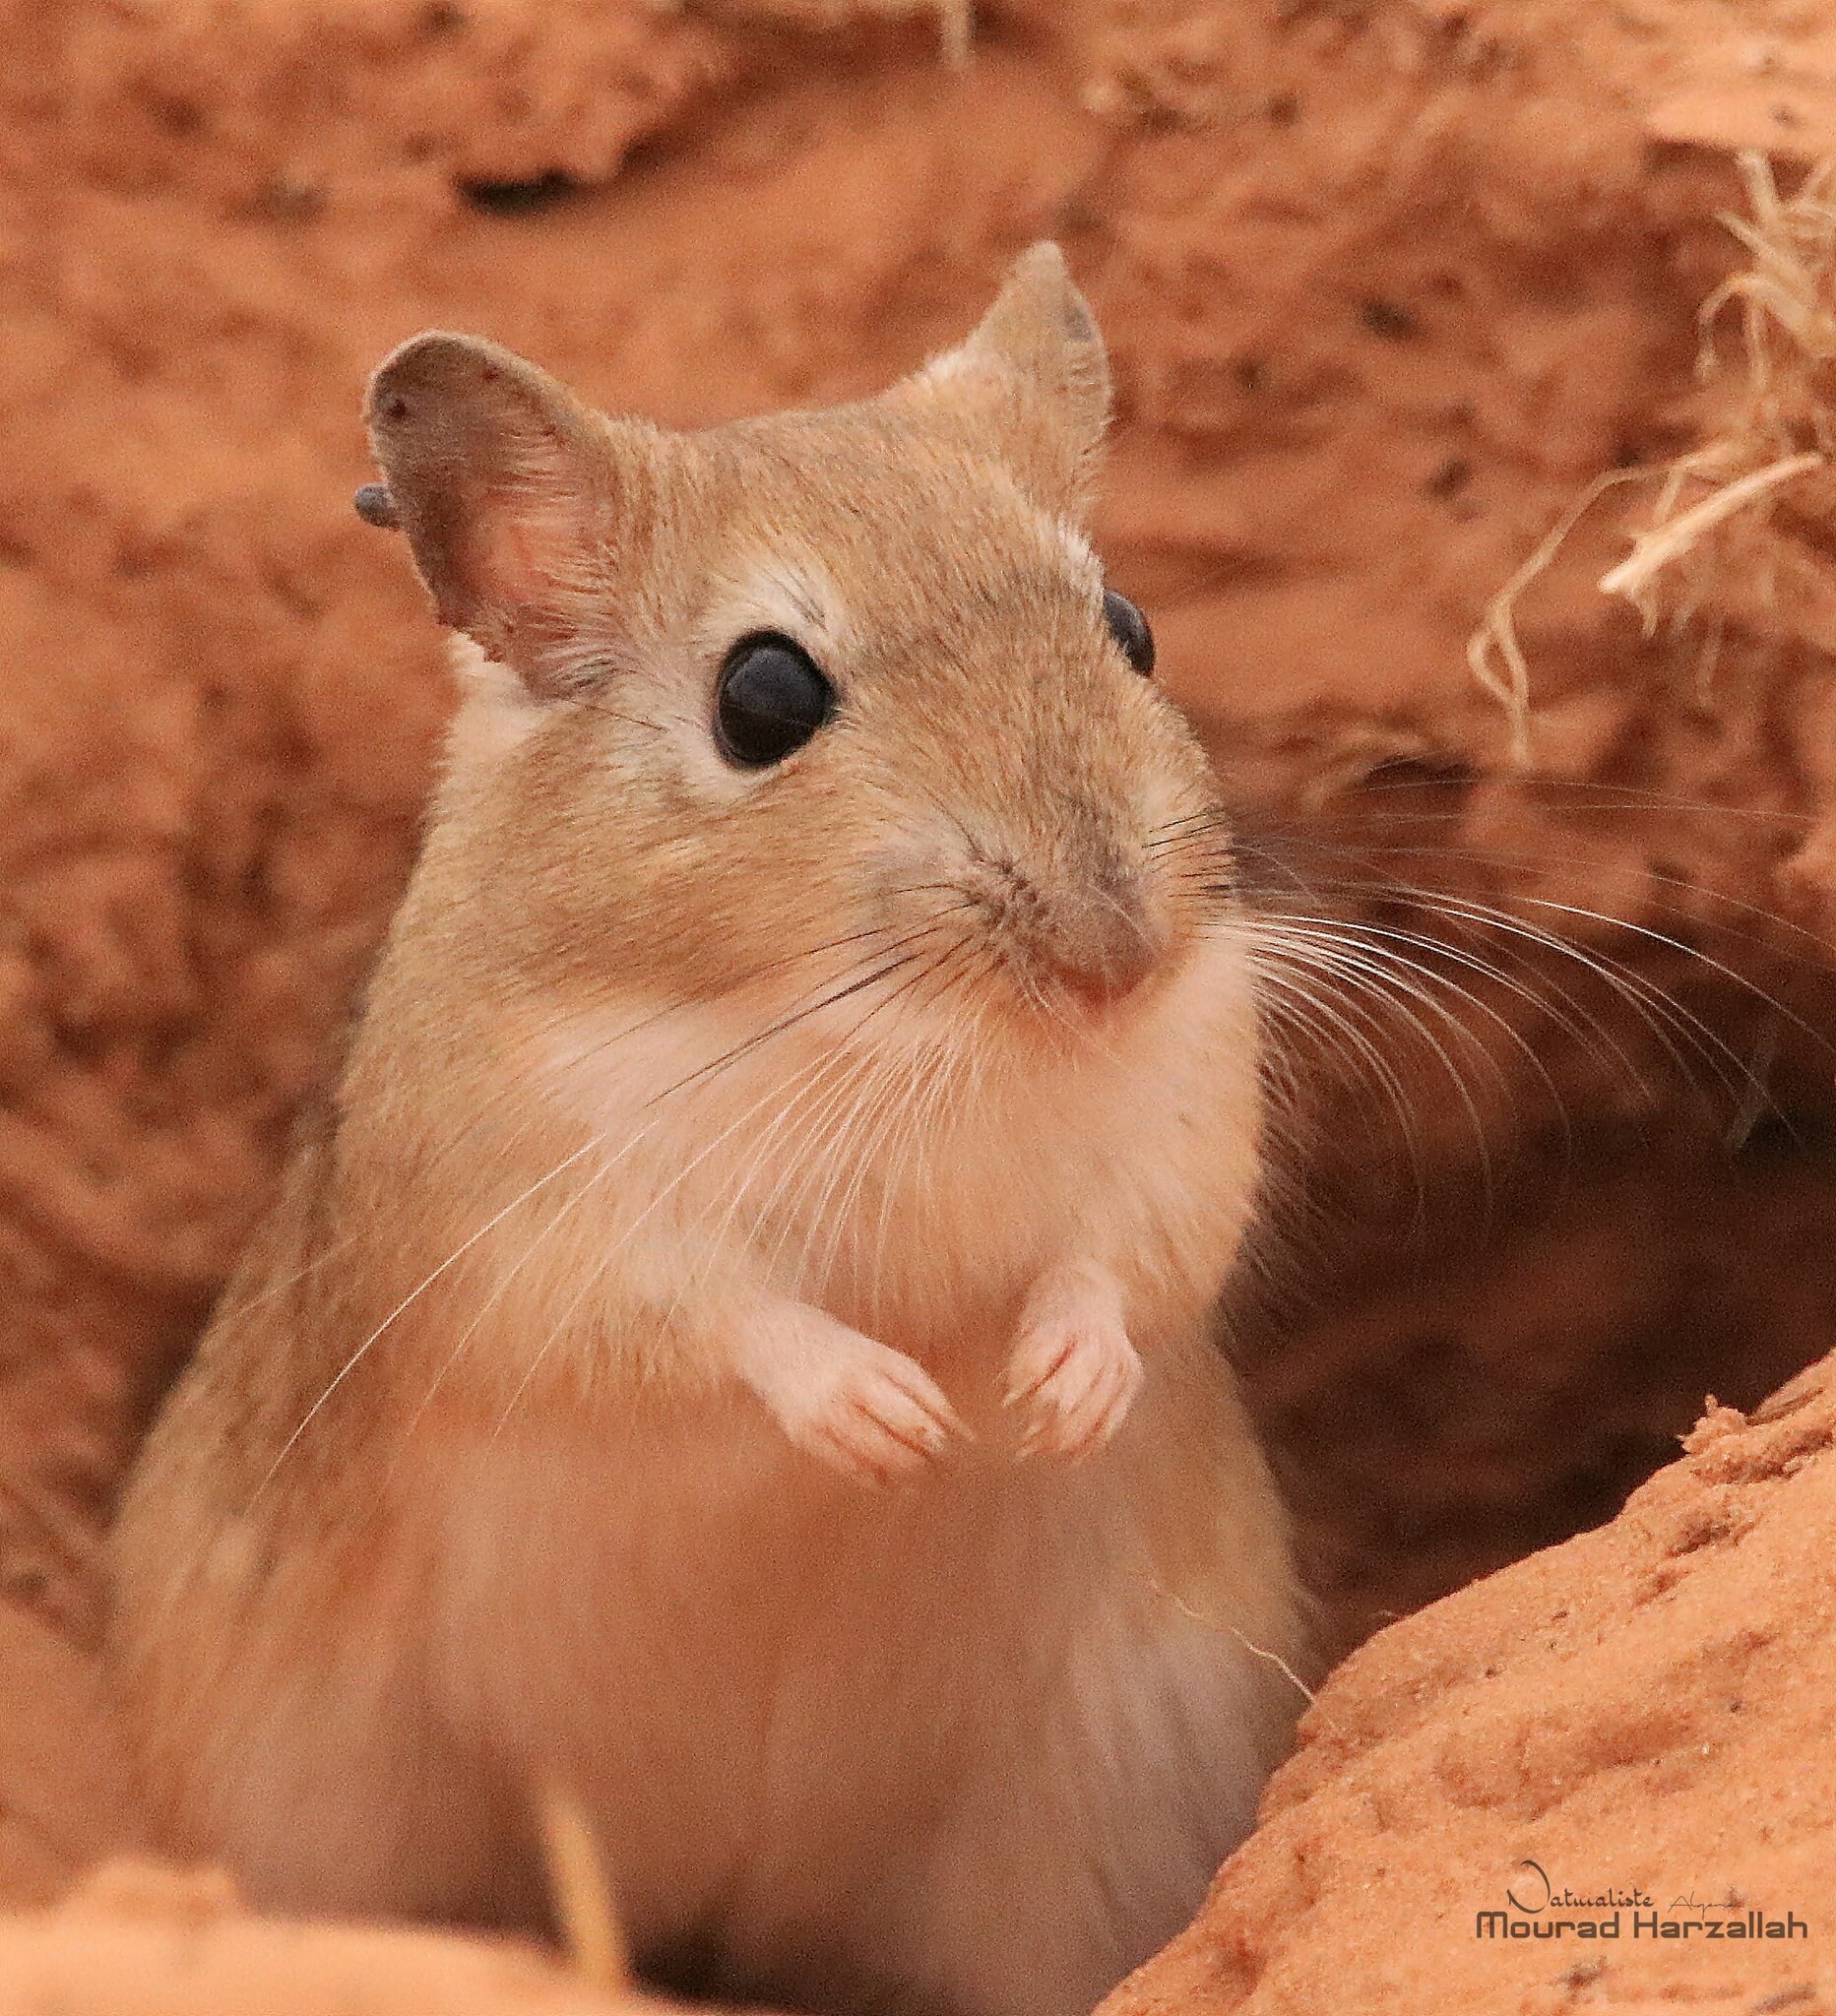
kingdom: Animalia
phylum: Chordata
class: Mammalia
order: Rodentia
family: Muridae
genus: Meriones
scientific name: Meriones crassus
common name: Sundevall's jird
